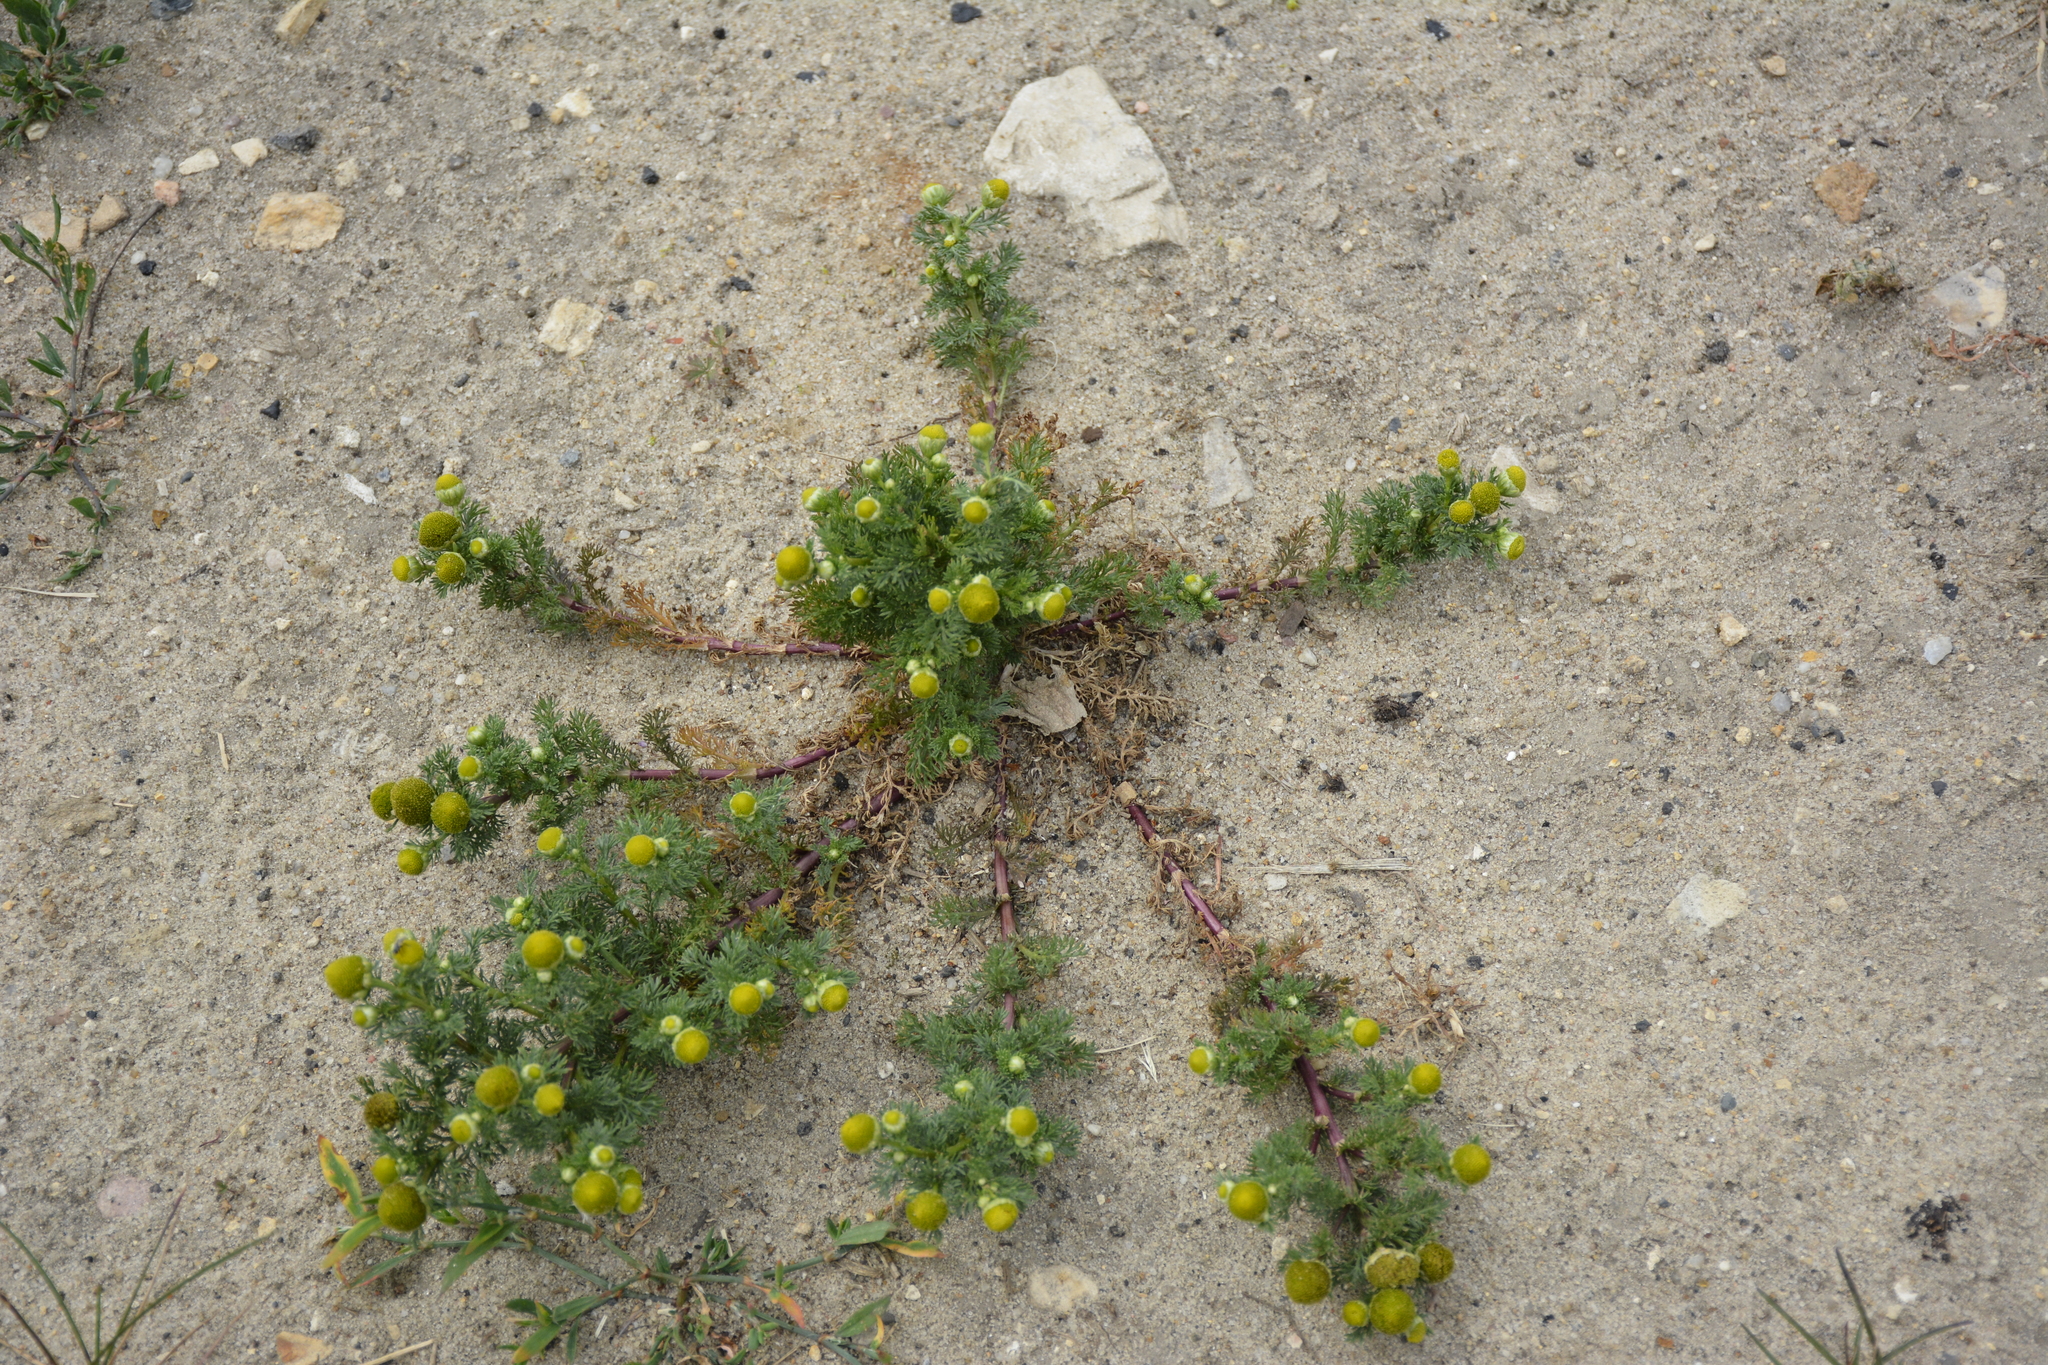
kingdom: Plantae
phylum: Tracheophyta
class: Magnoliopsida
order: Asterales
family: Asteraceae
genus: Matricaria
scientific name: Matricaria discoidea
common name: Disc mayweed
